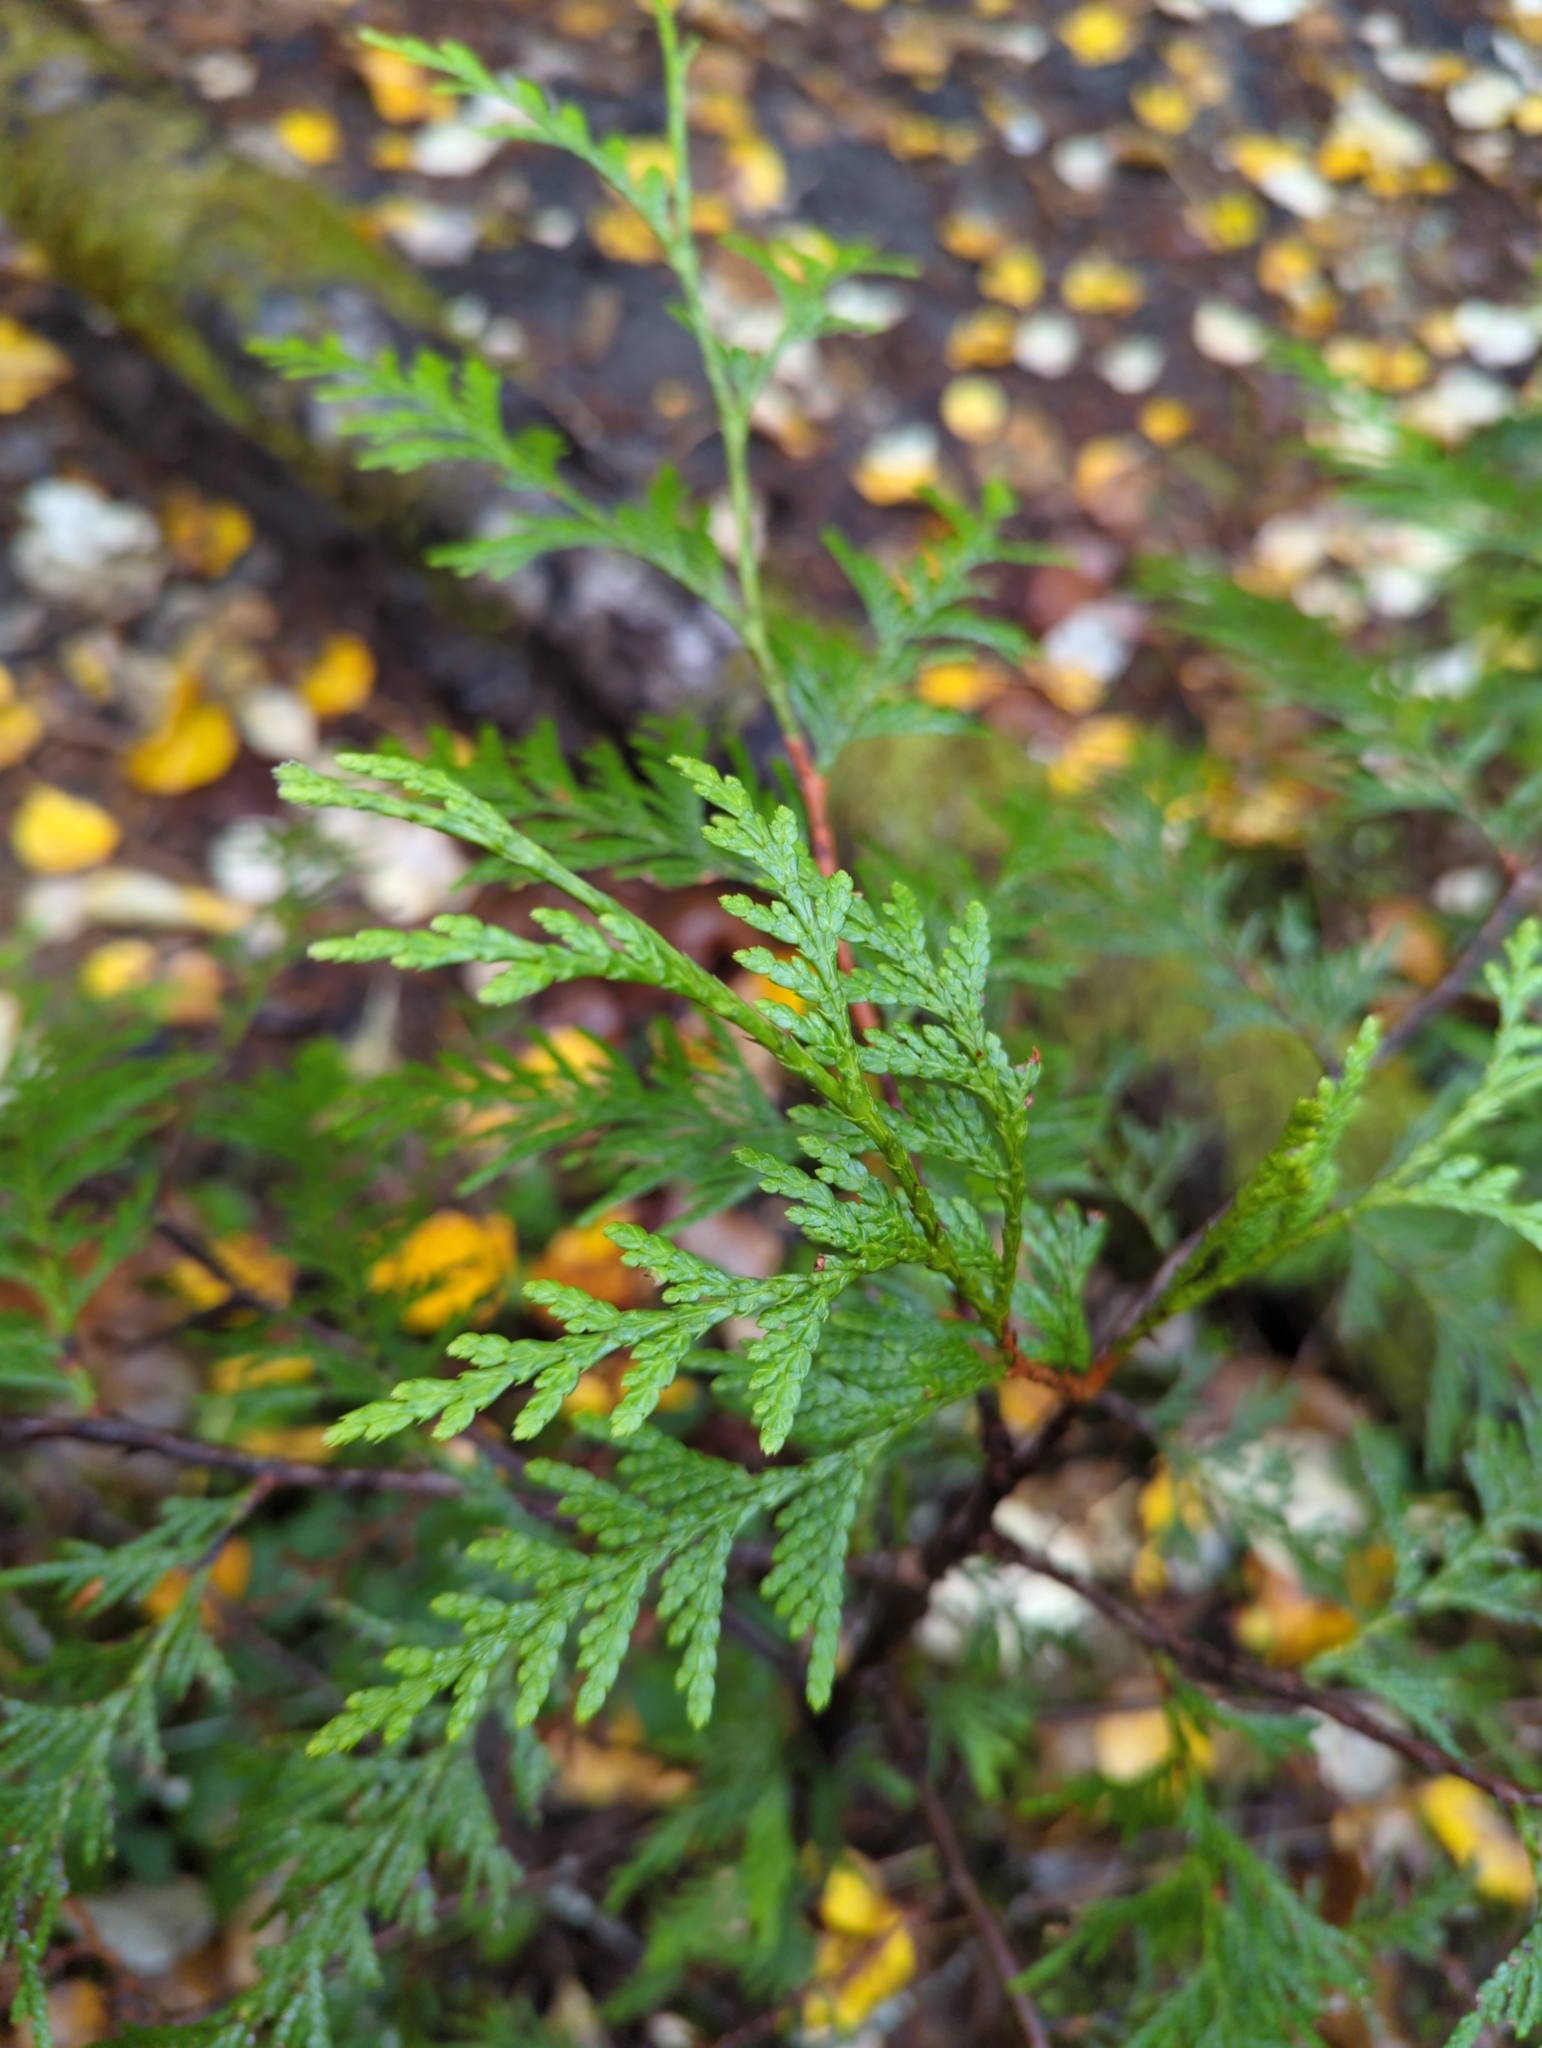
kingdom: Plantae
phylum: Tracheophyta
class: Pinopsida
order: Pinales
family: Cupressaceae
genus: Thuja
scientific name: Thuja plicata
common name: Western red-cedar
